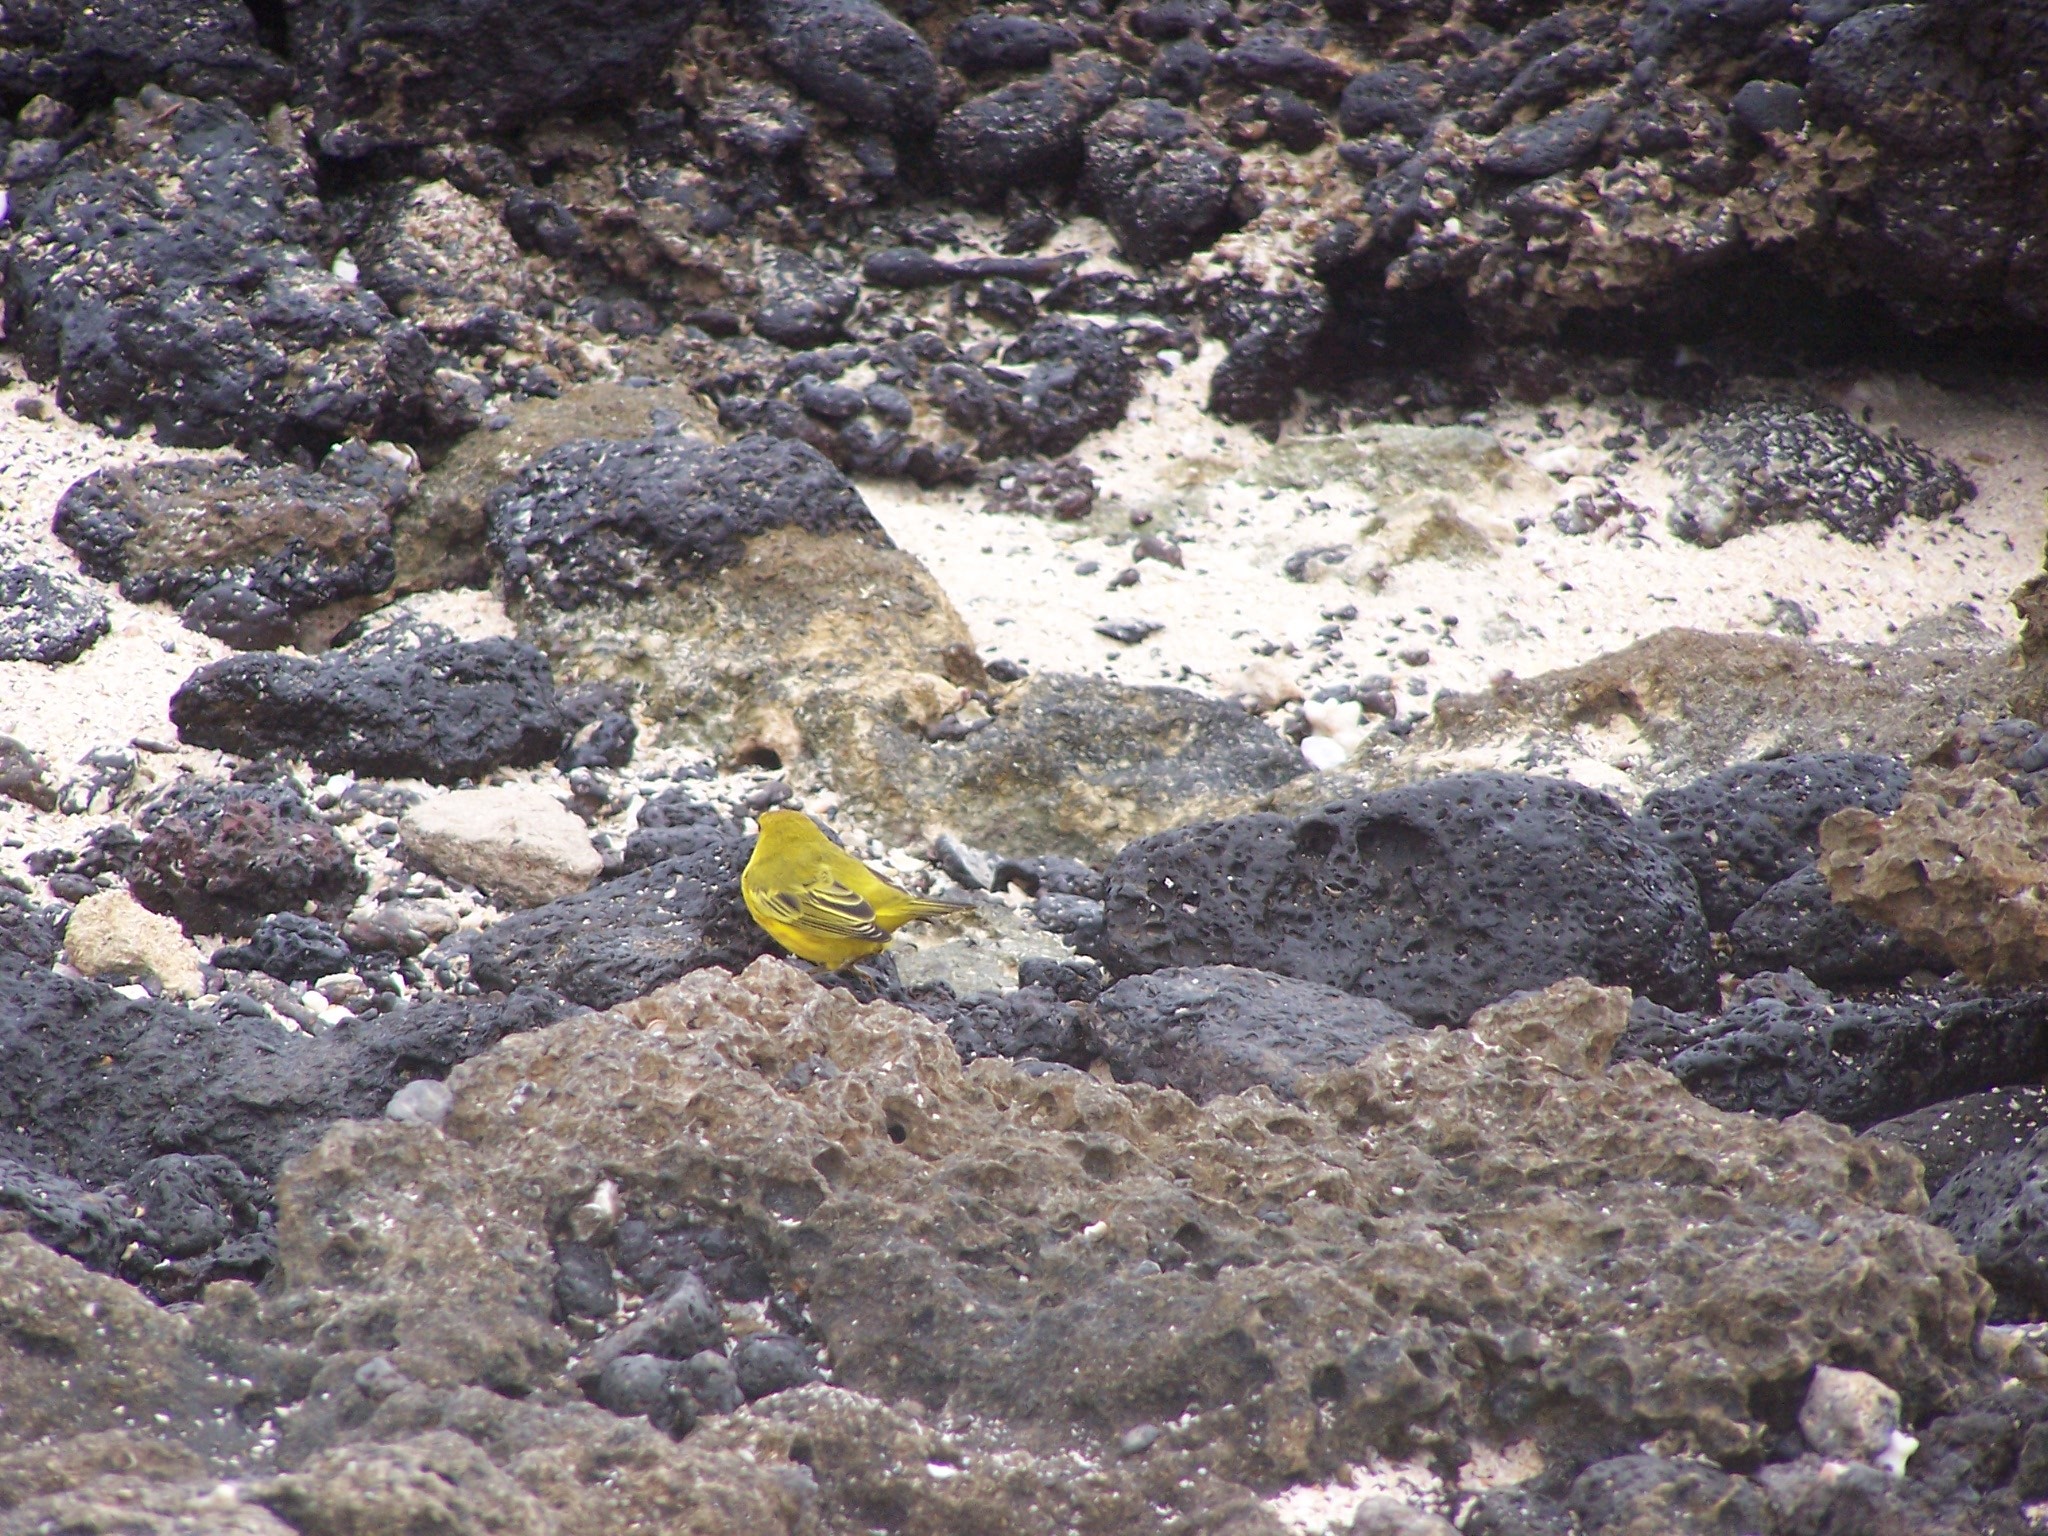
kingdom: Animalia
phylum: Chordata
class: Aves
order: Passeriformes
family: Parulidae
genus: Setophaga
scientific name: Setophaga petechia
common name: Yellow warbler
